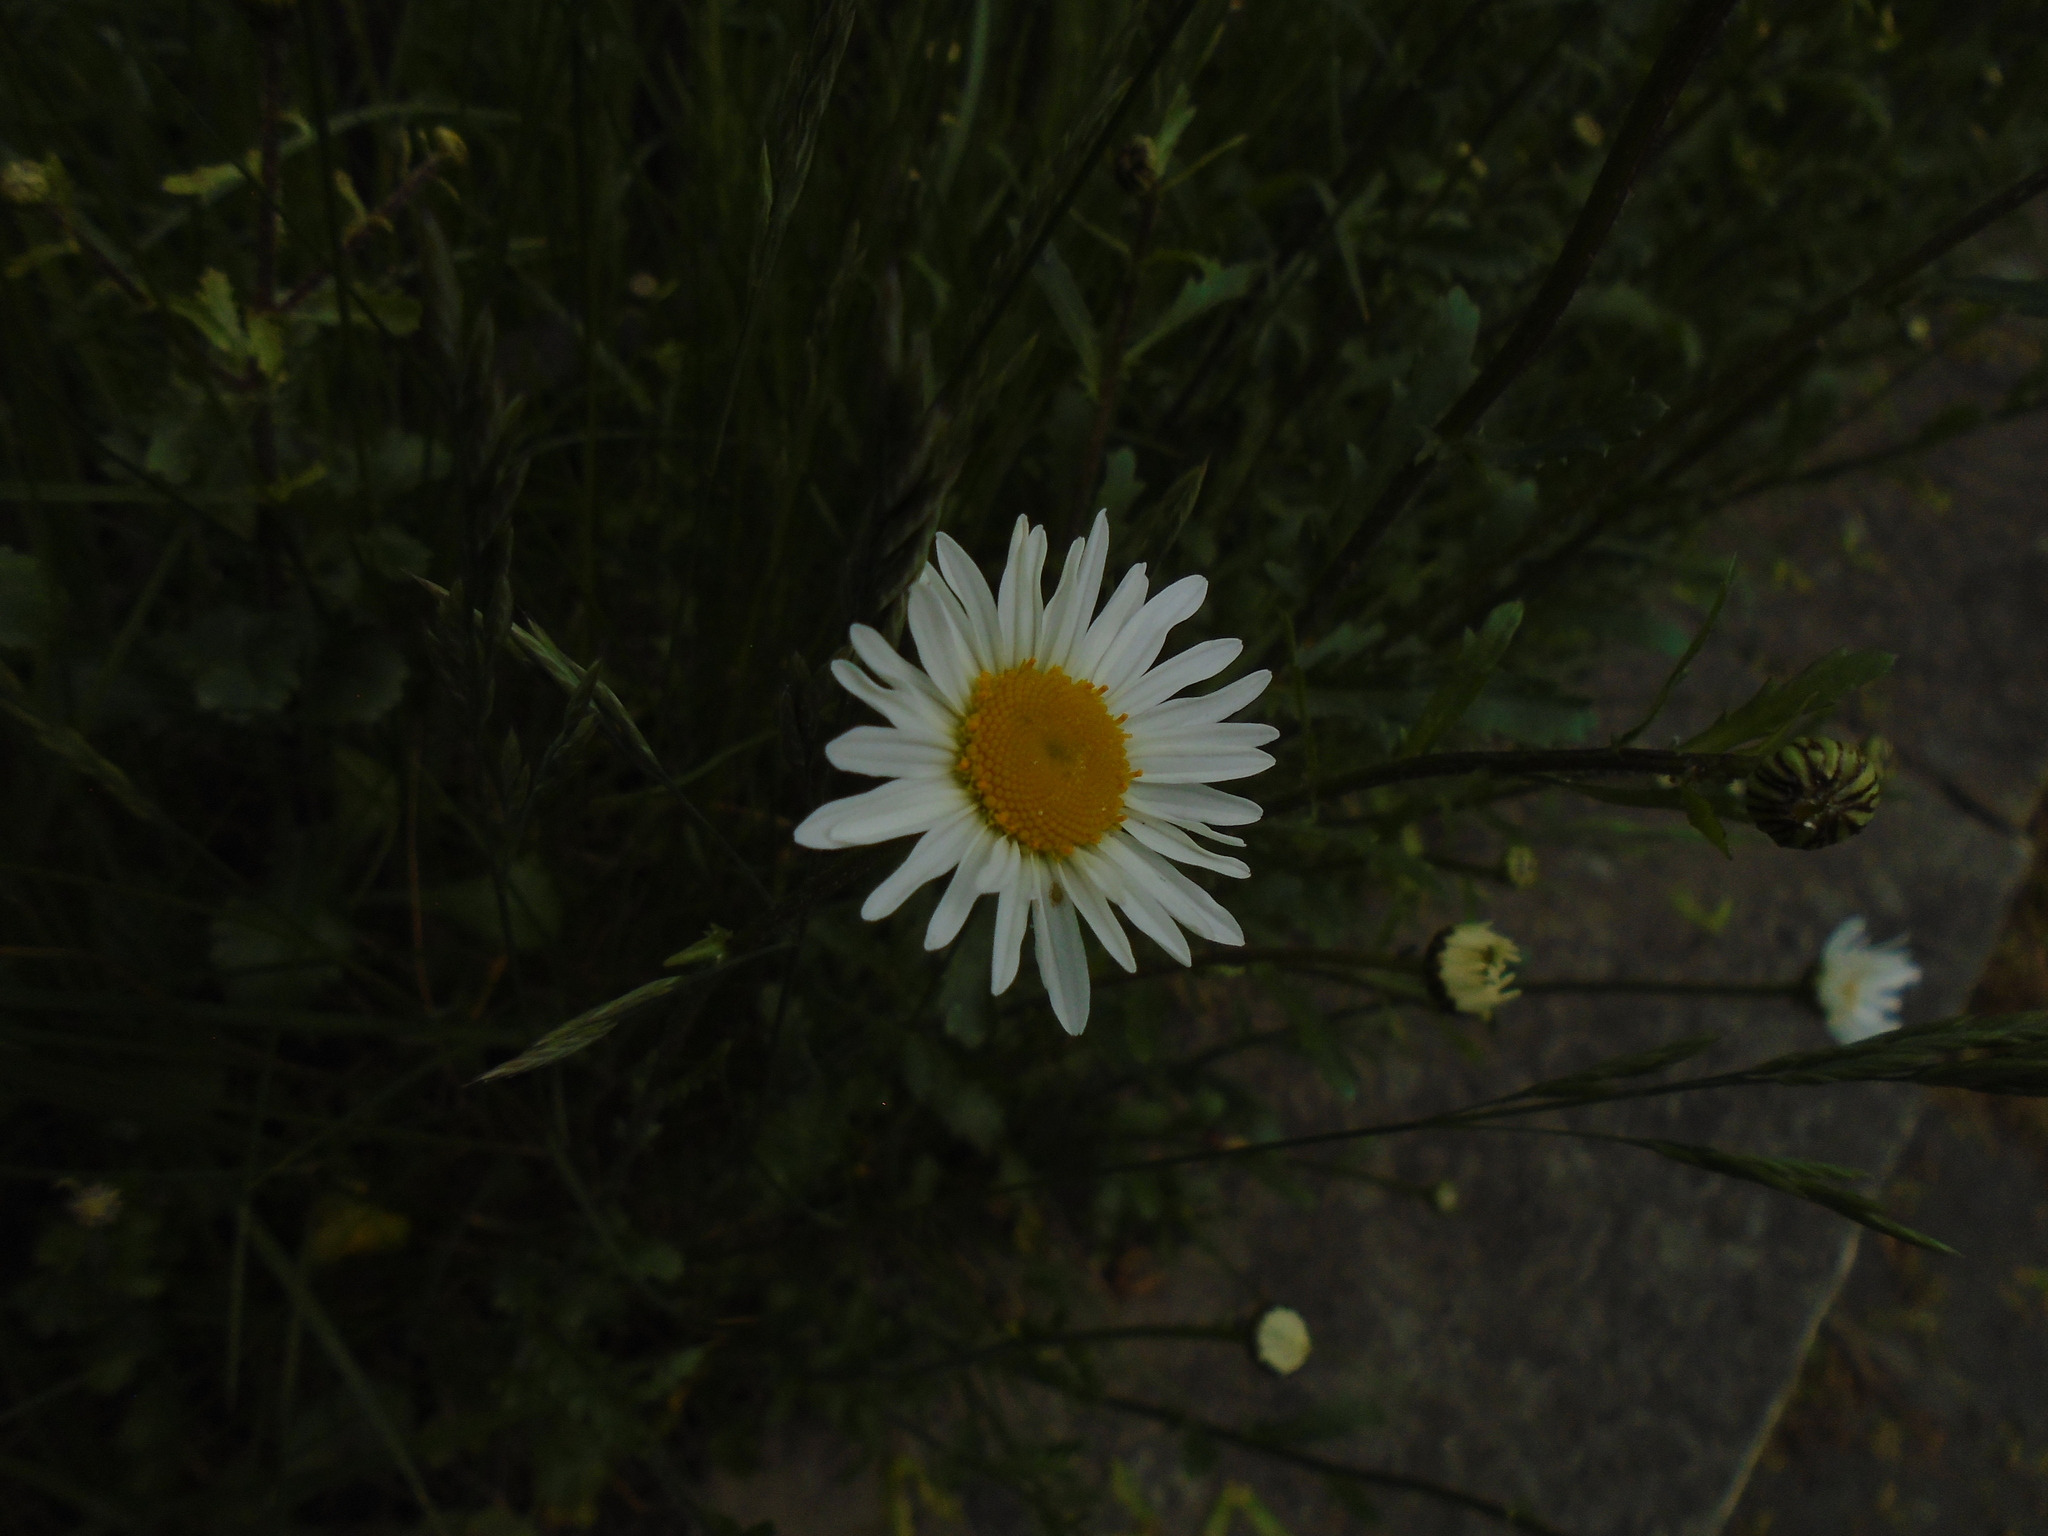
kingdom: Plantae
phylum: Tracheophyta
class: Magnoliopsida
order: Asterales
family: Asteraceae
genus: Leucanthemum
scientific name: Leucanthemum vulgare
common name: Oxeye daisy
